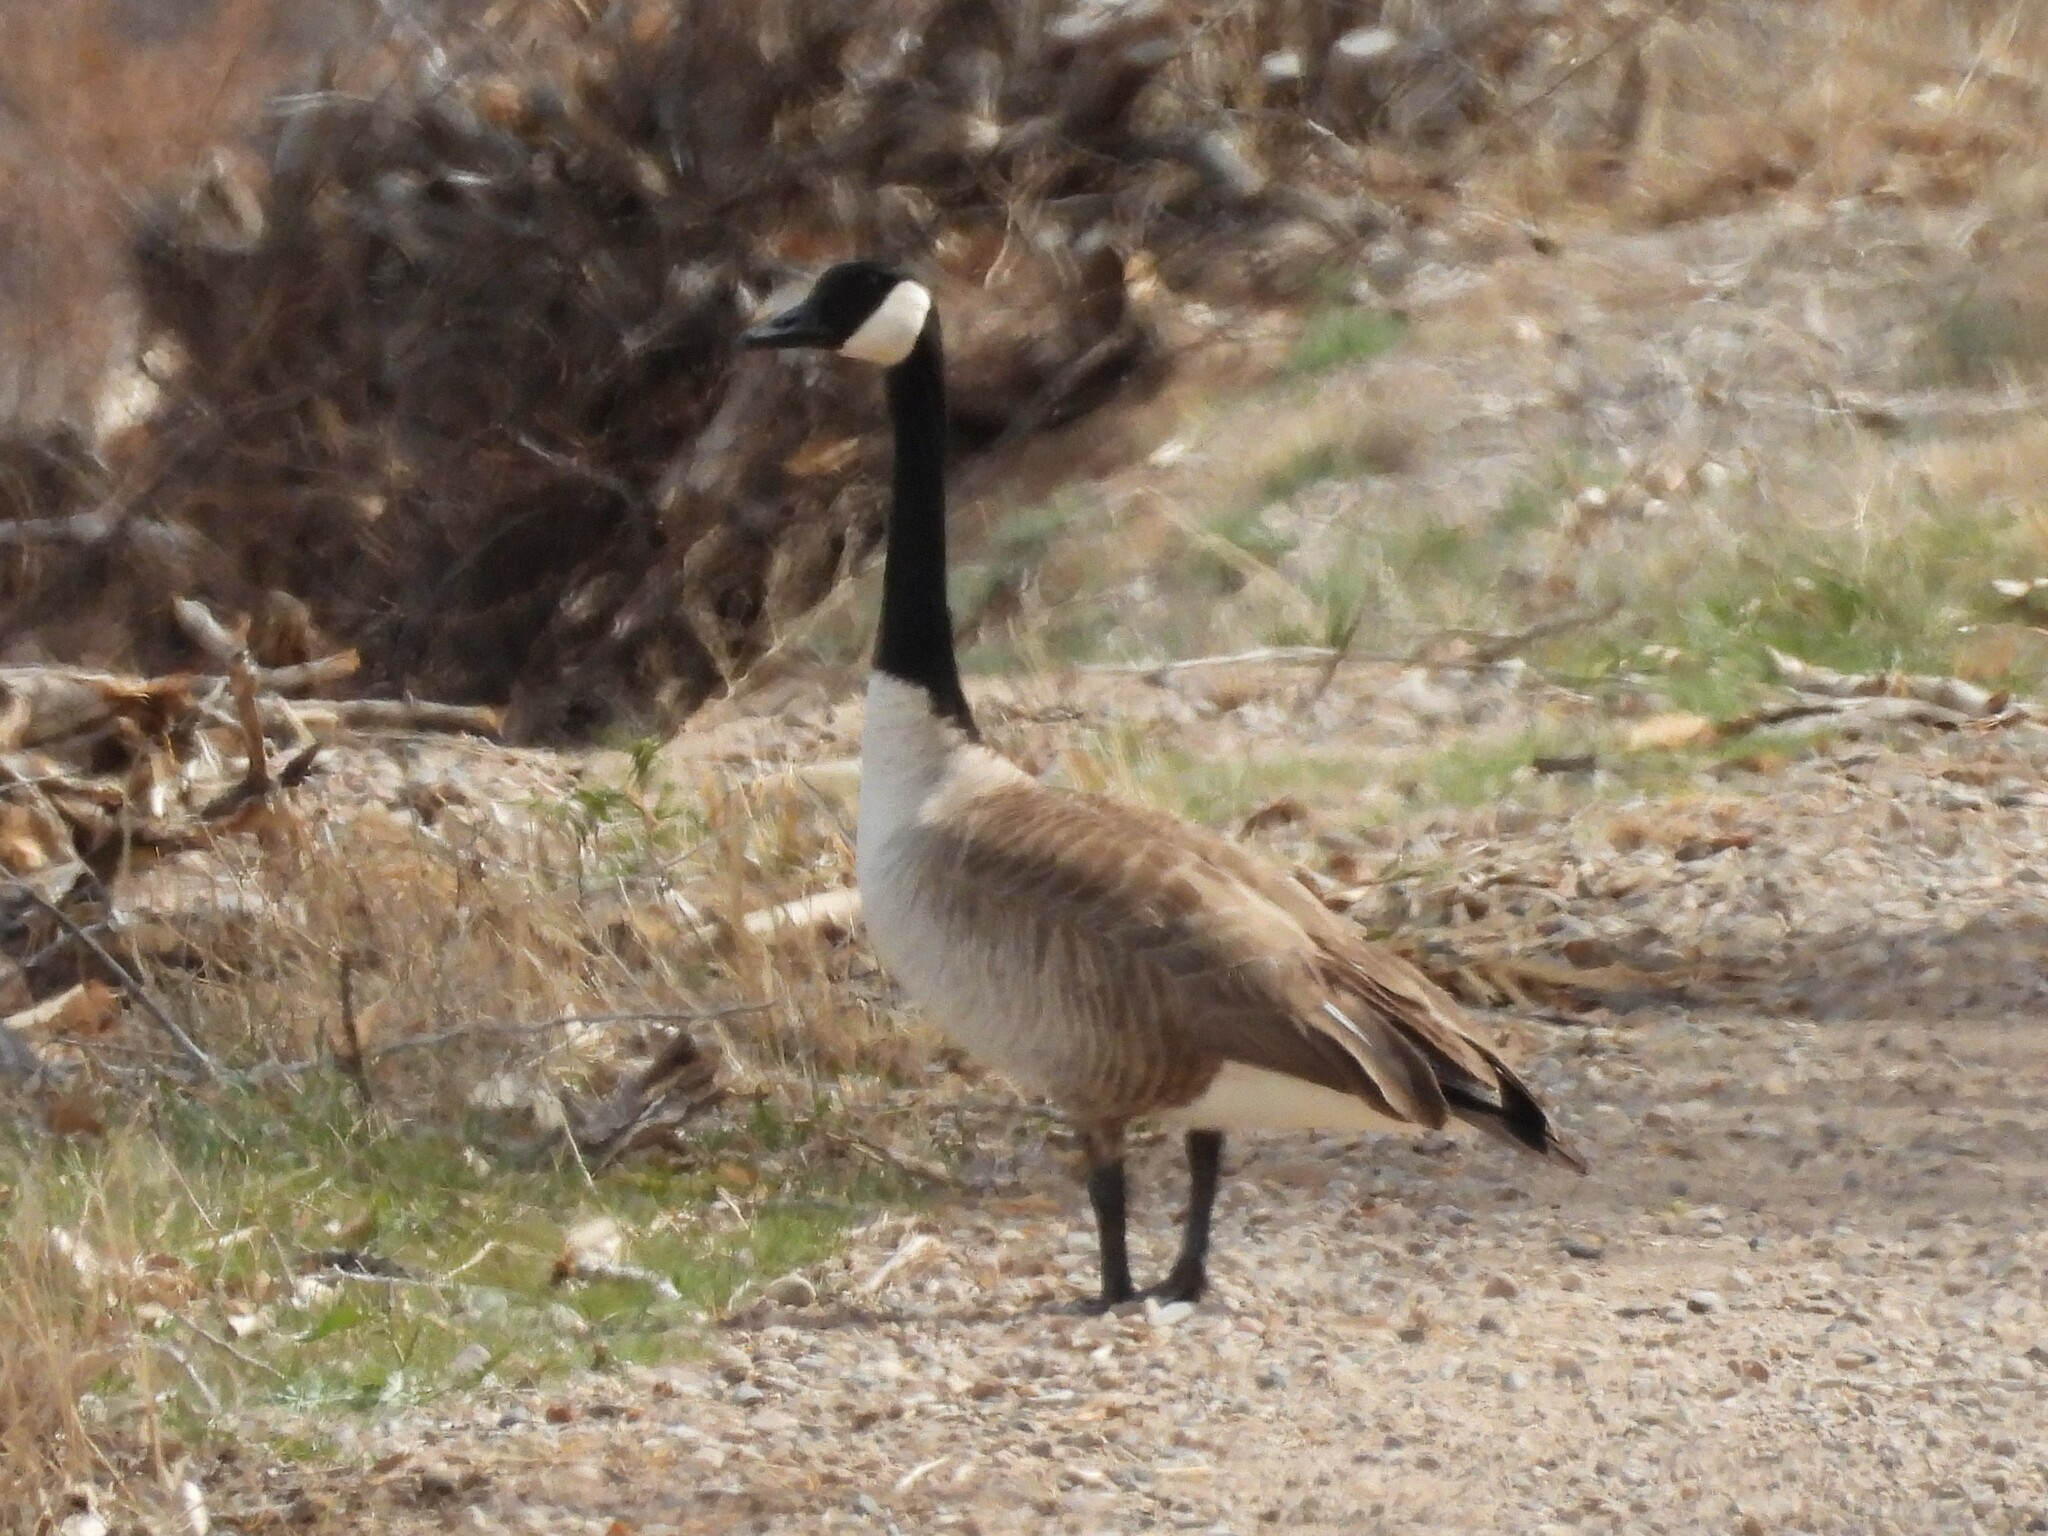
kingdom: Animalia
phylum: Chordata
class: Aves
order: Anseriformes
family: Anatidae
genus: Branta
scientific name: Branta canadensis
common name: Canada goose
